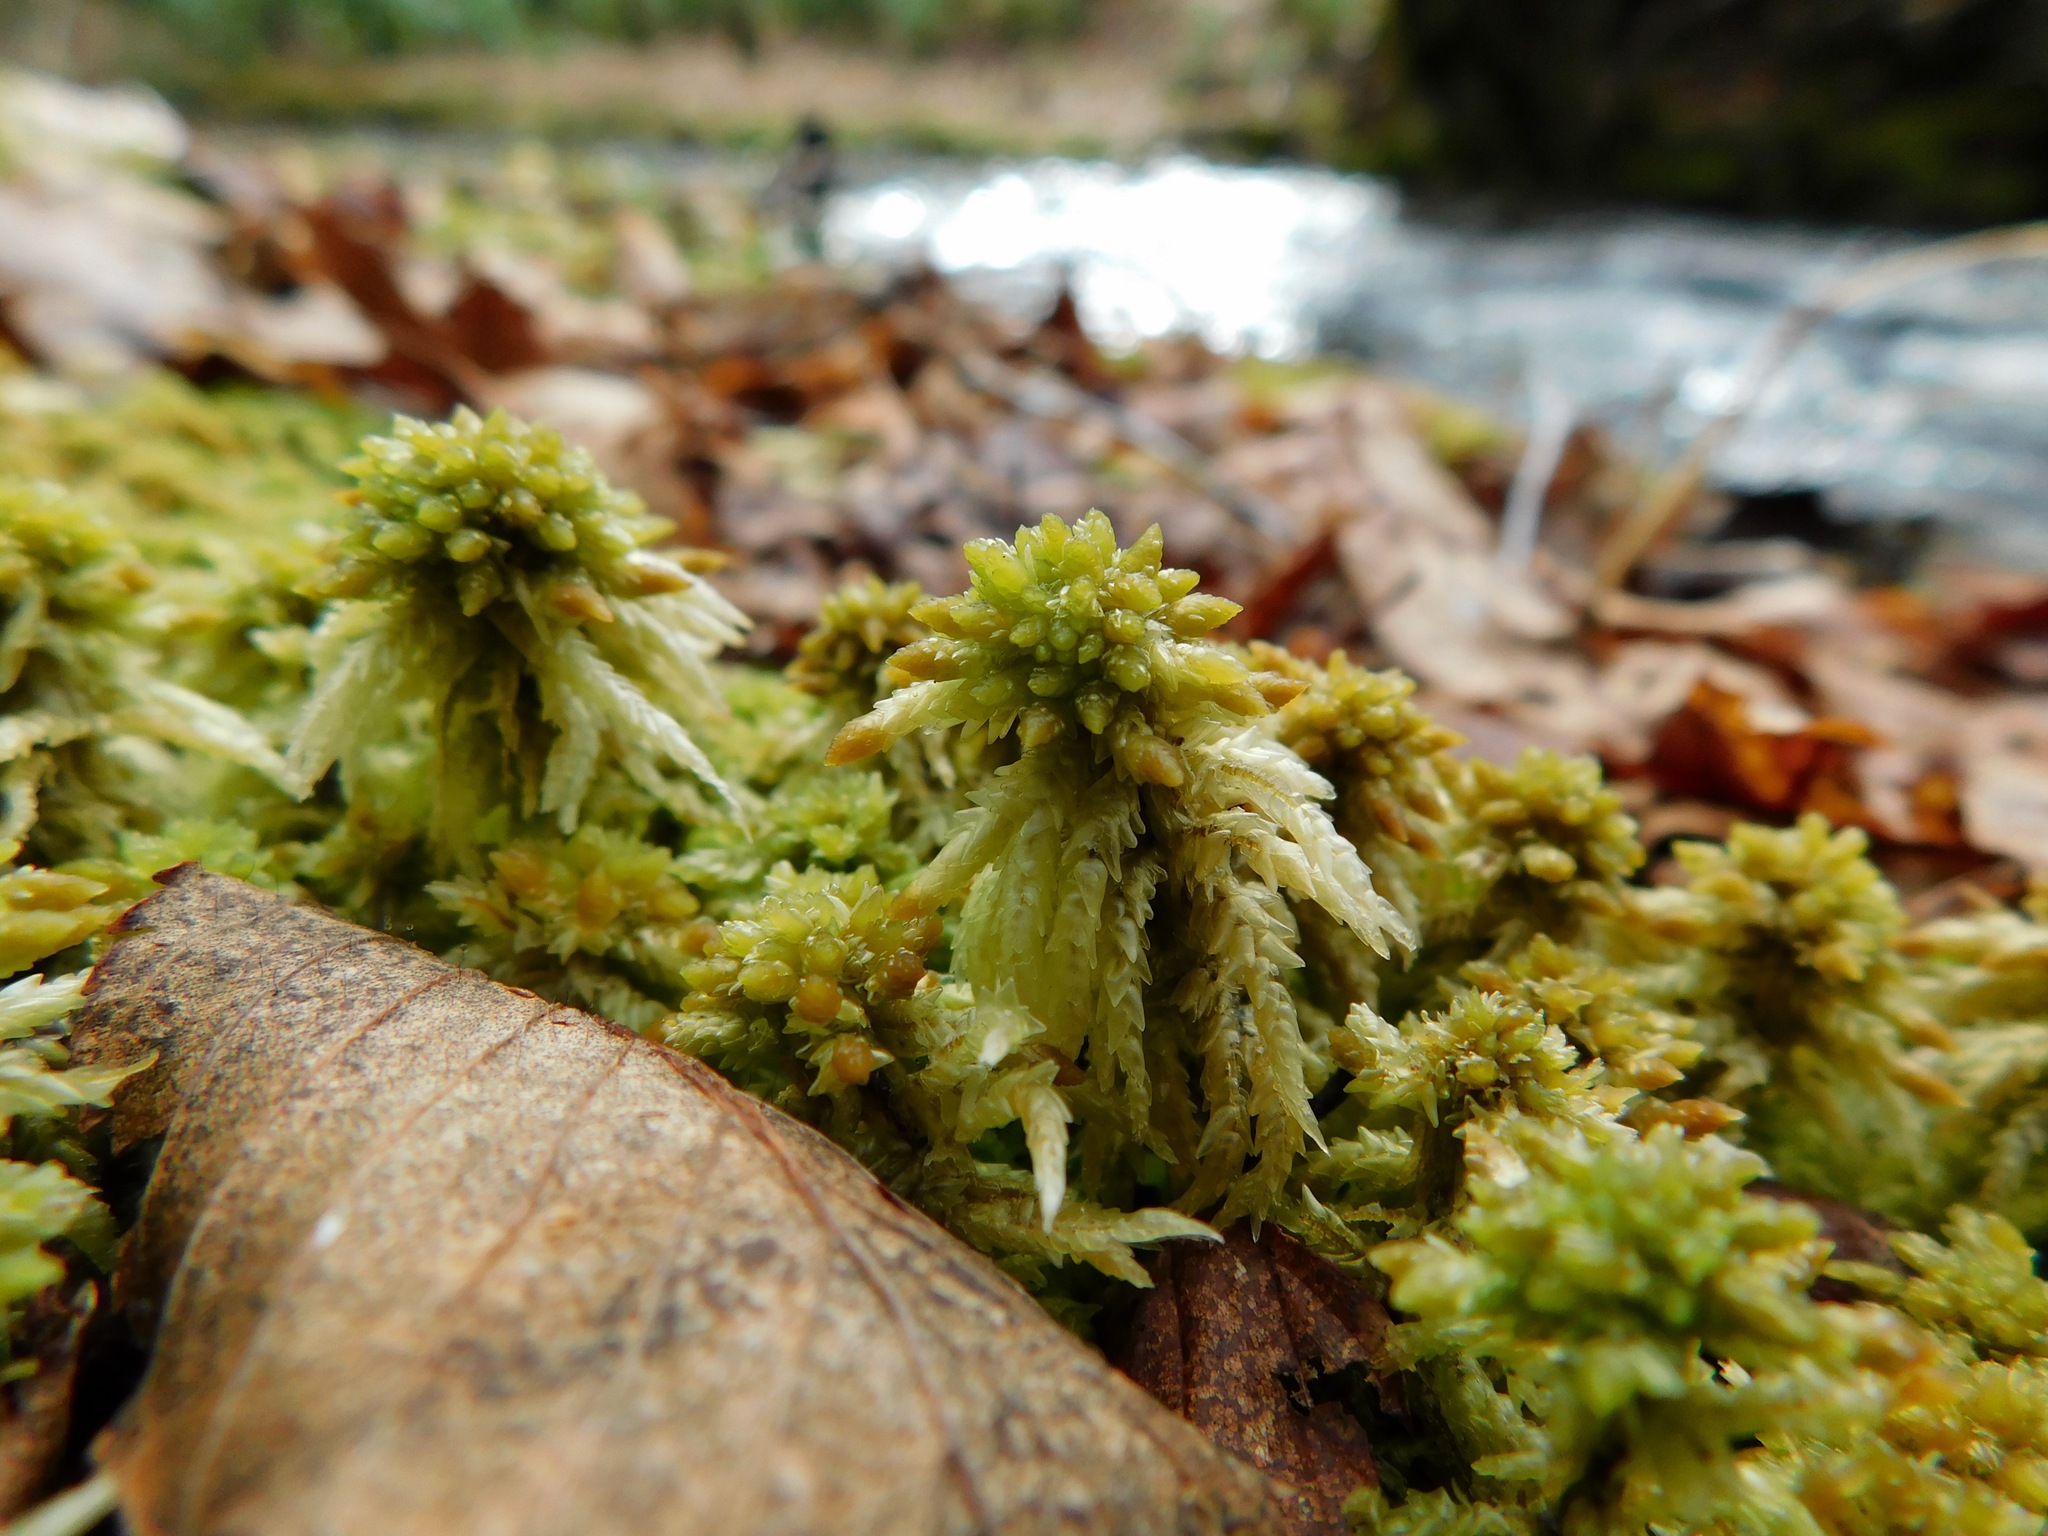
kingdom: Plantae
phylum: Bryophyta
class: Sphagnopsida
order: Sphagnales
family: Sphagnaceae
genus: Sphagnum
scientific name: Sphagnum palustre
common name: Blunt-leaved bog-moss
